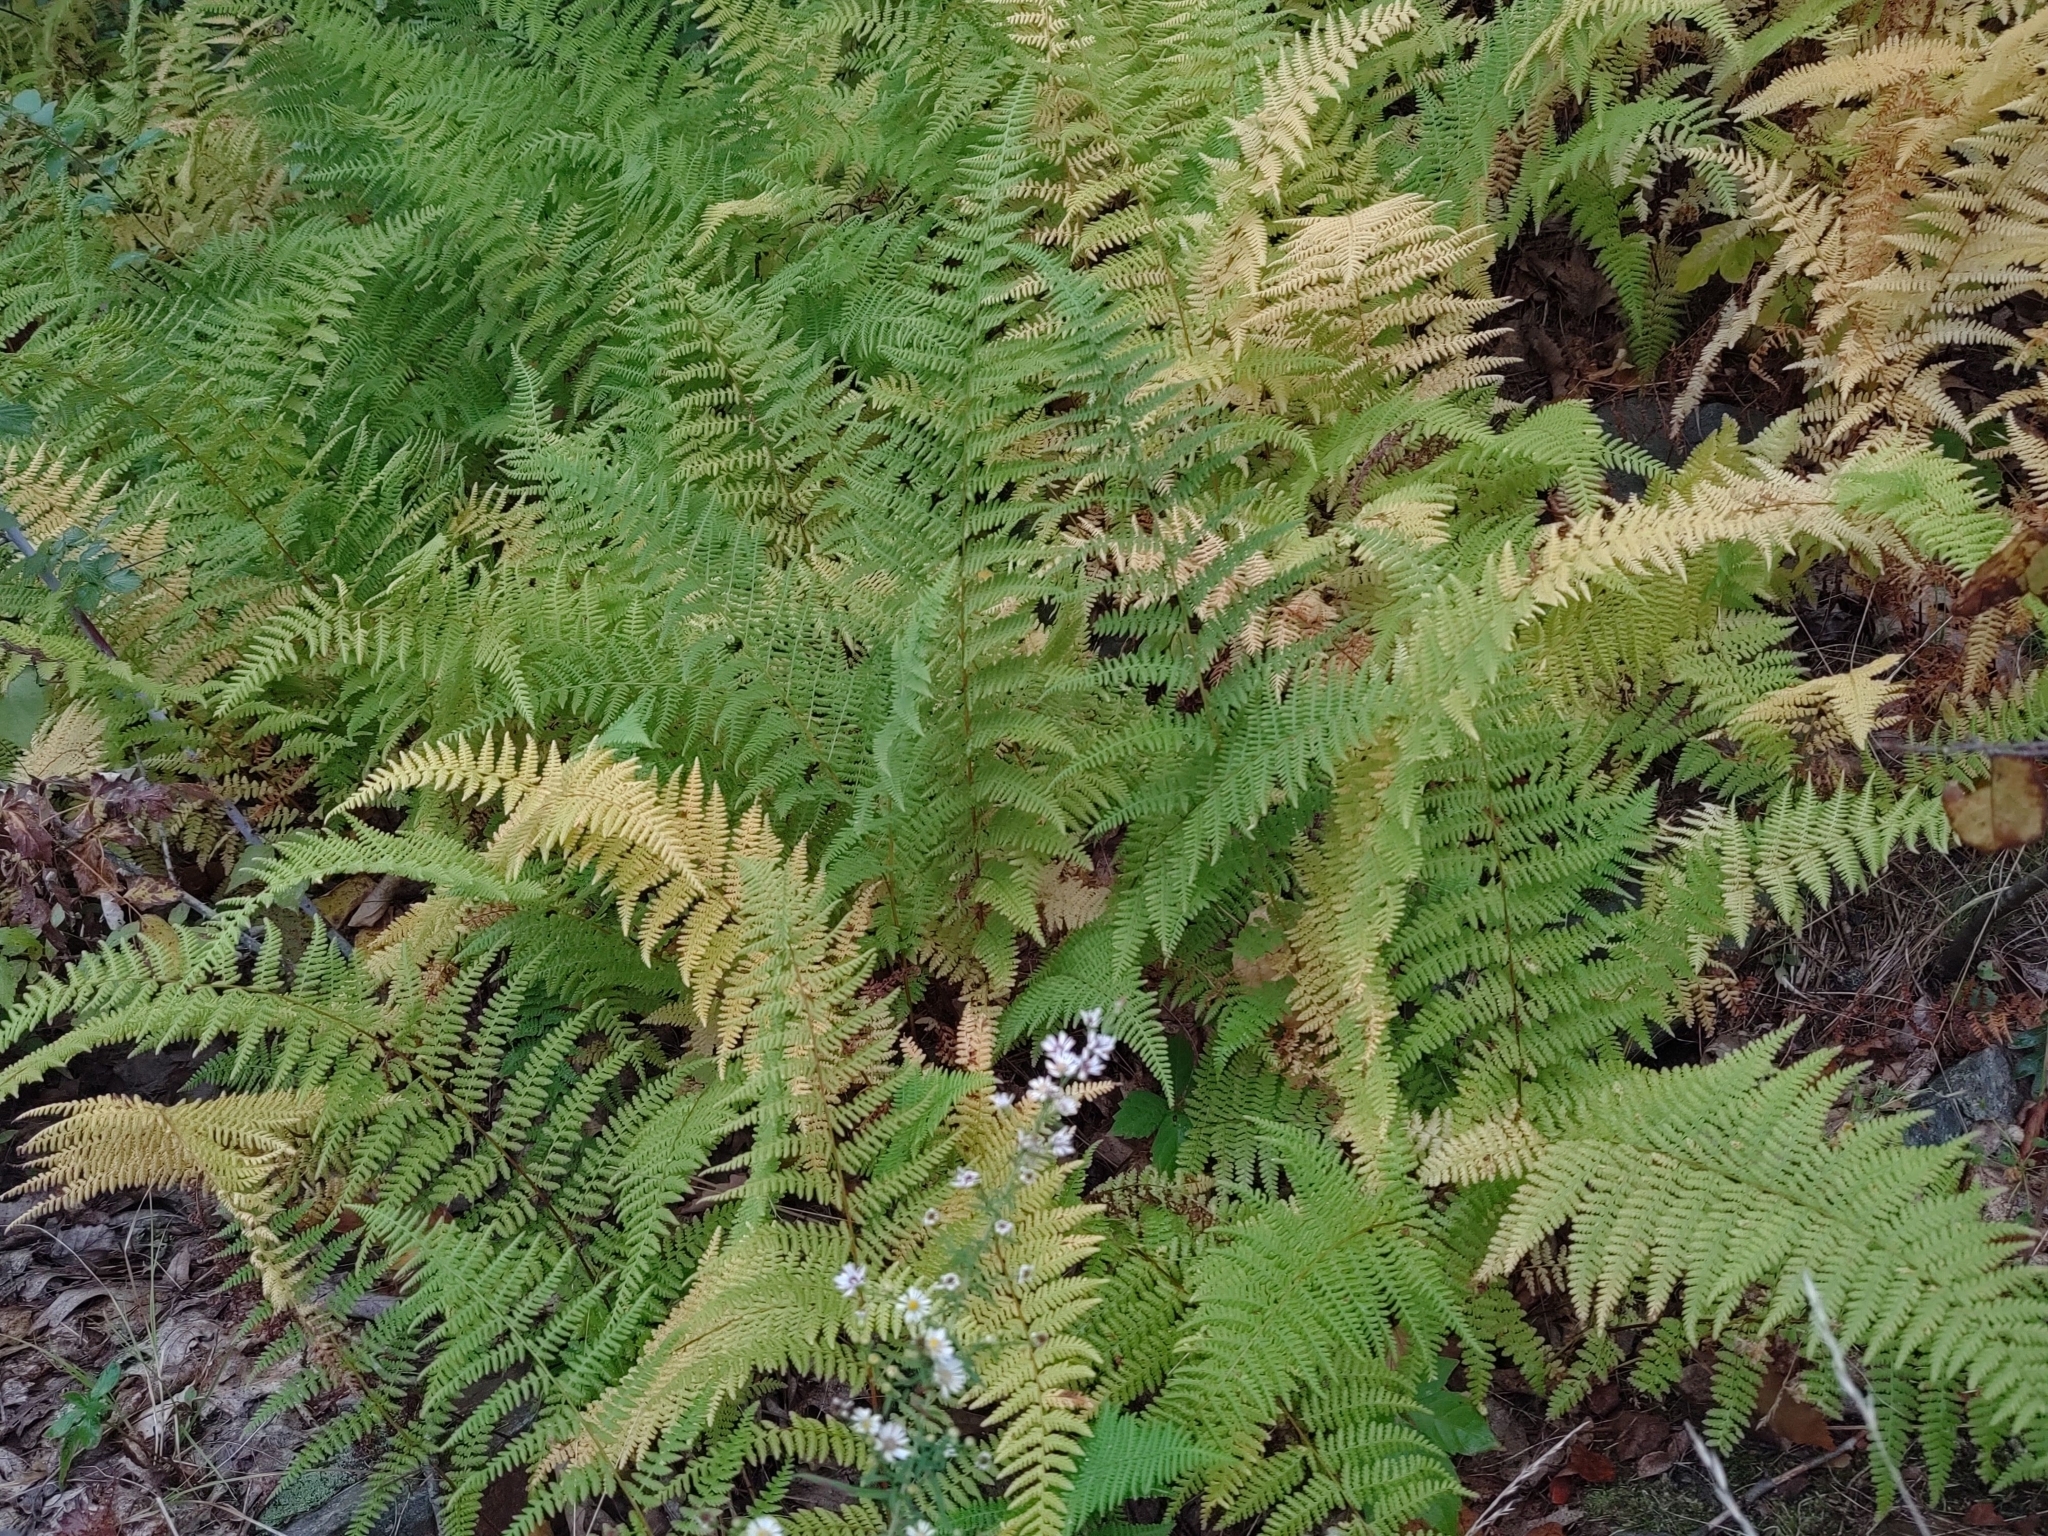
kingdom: Plantae
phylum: Tracheophyta
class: Polypodiopsida
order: Polypodiales
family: Dennstaedtiaceae
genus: Sitobolium
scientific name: Sitobolium punctilobum
